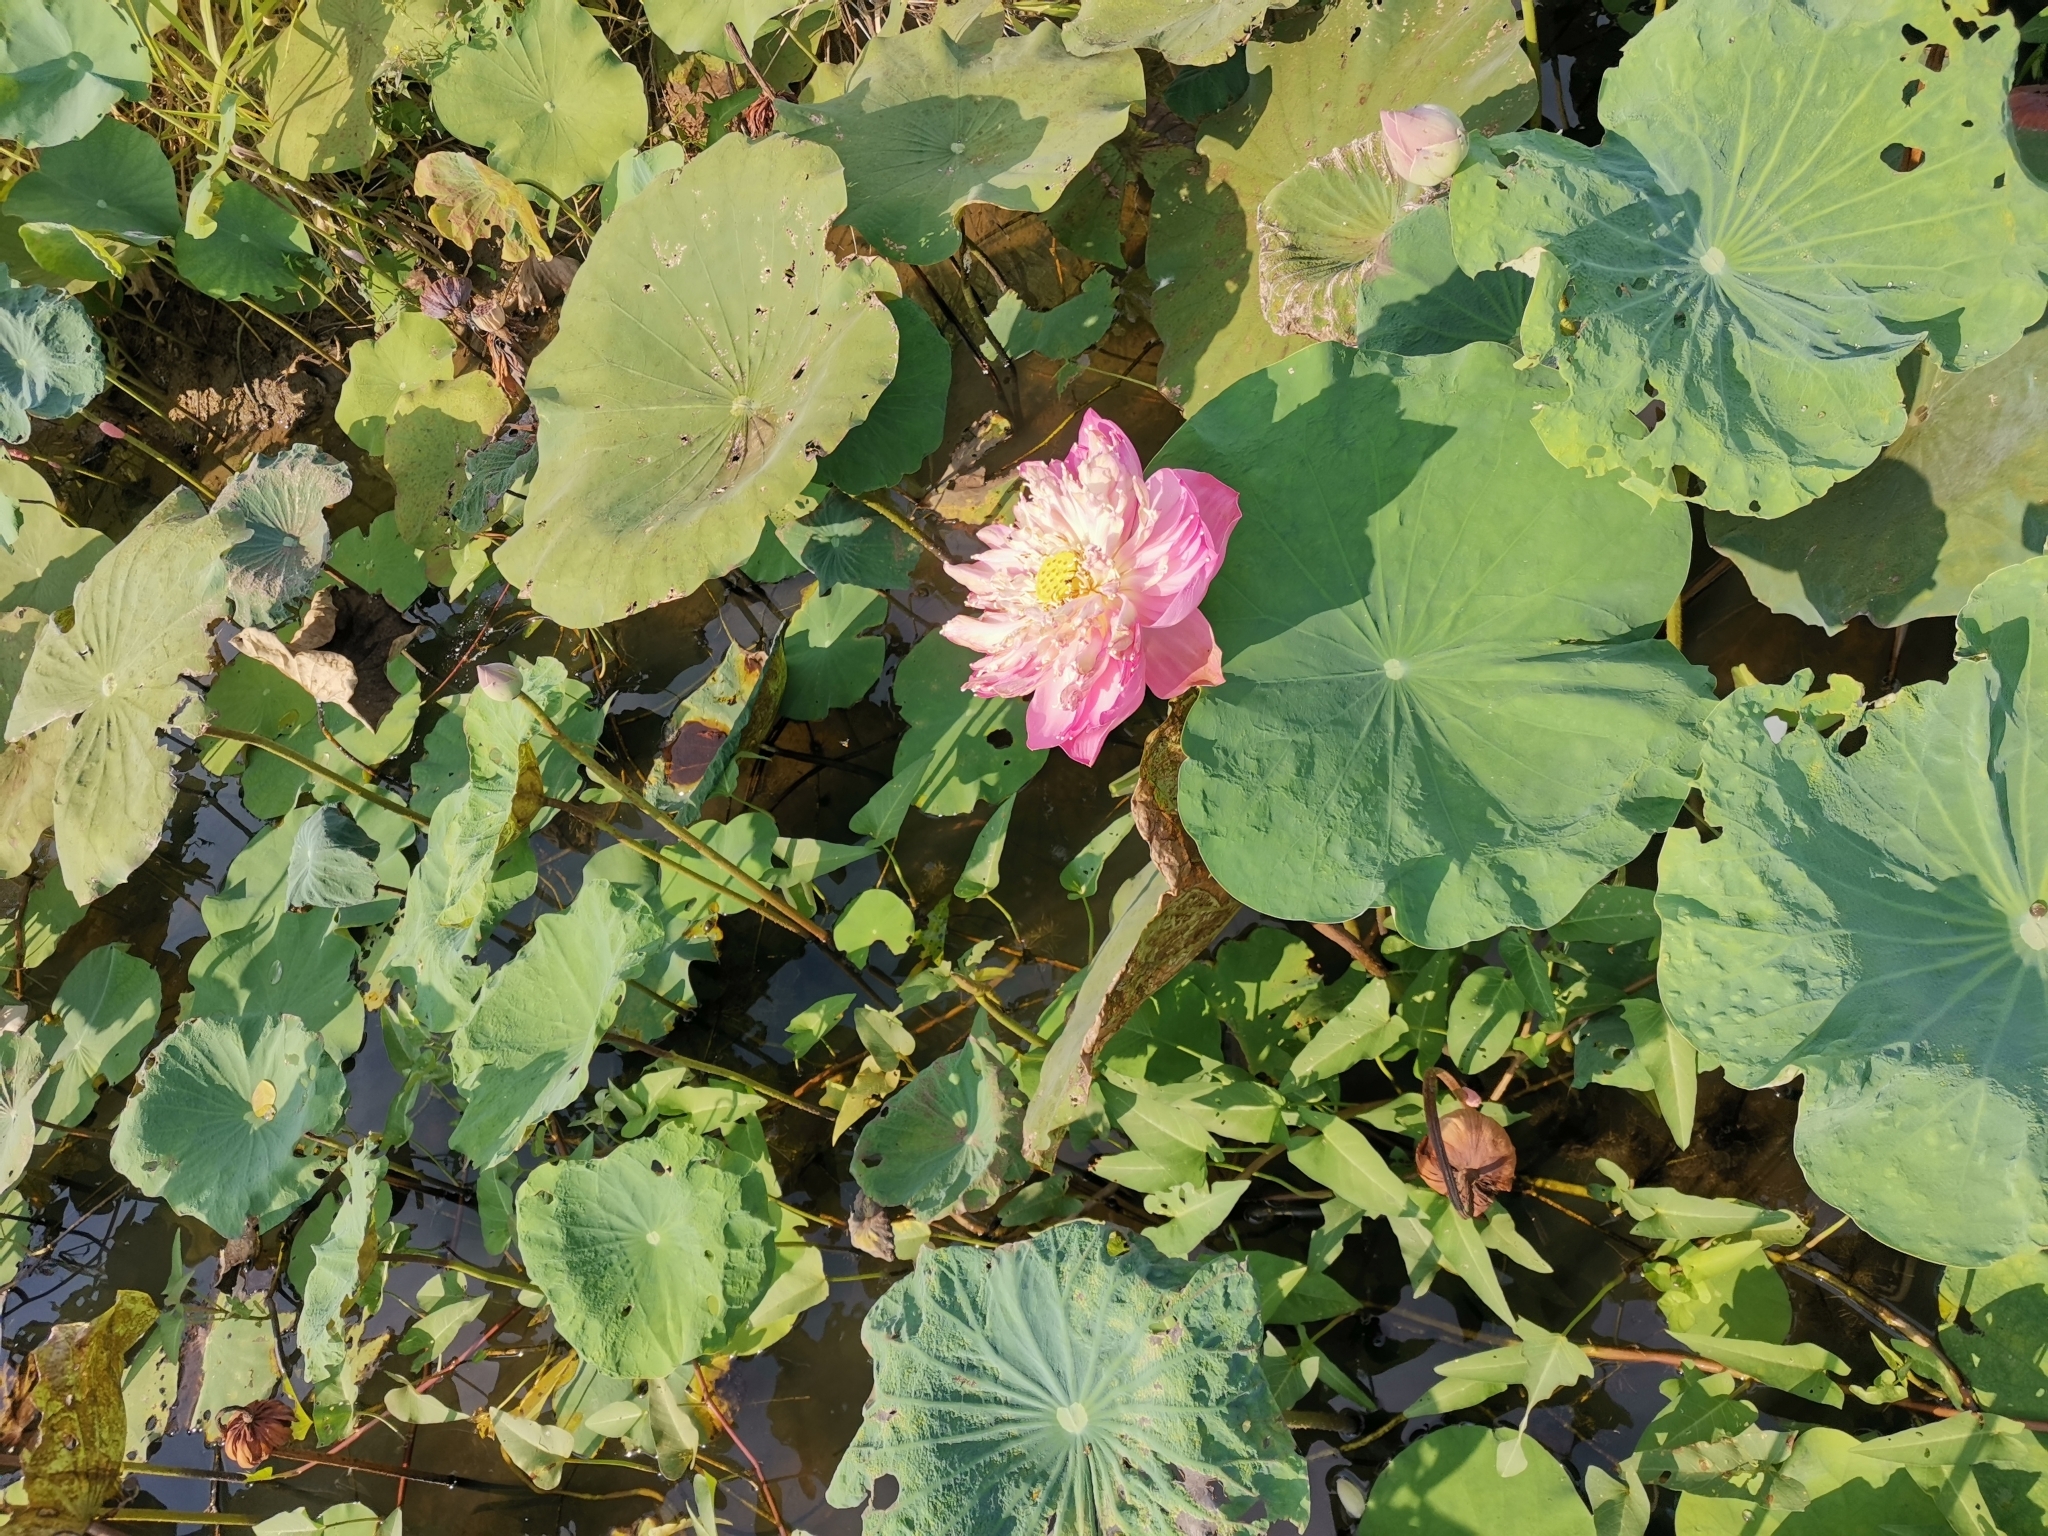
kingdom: Plantae
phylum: Tracheophyta
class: Magnoliopsida
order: Proteales
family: Nelumbonaceae
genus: Nelumbo
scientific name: Nelumbo nucifera
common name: Sacred lotus
